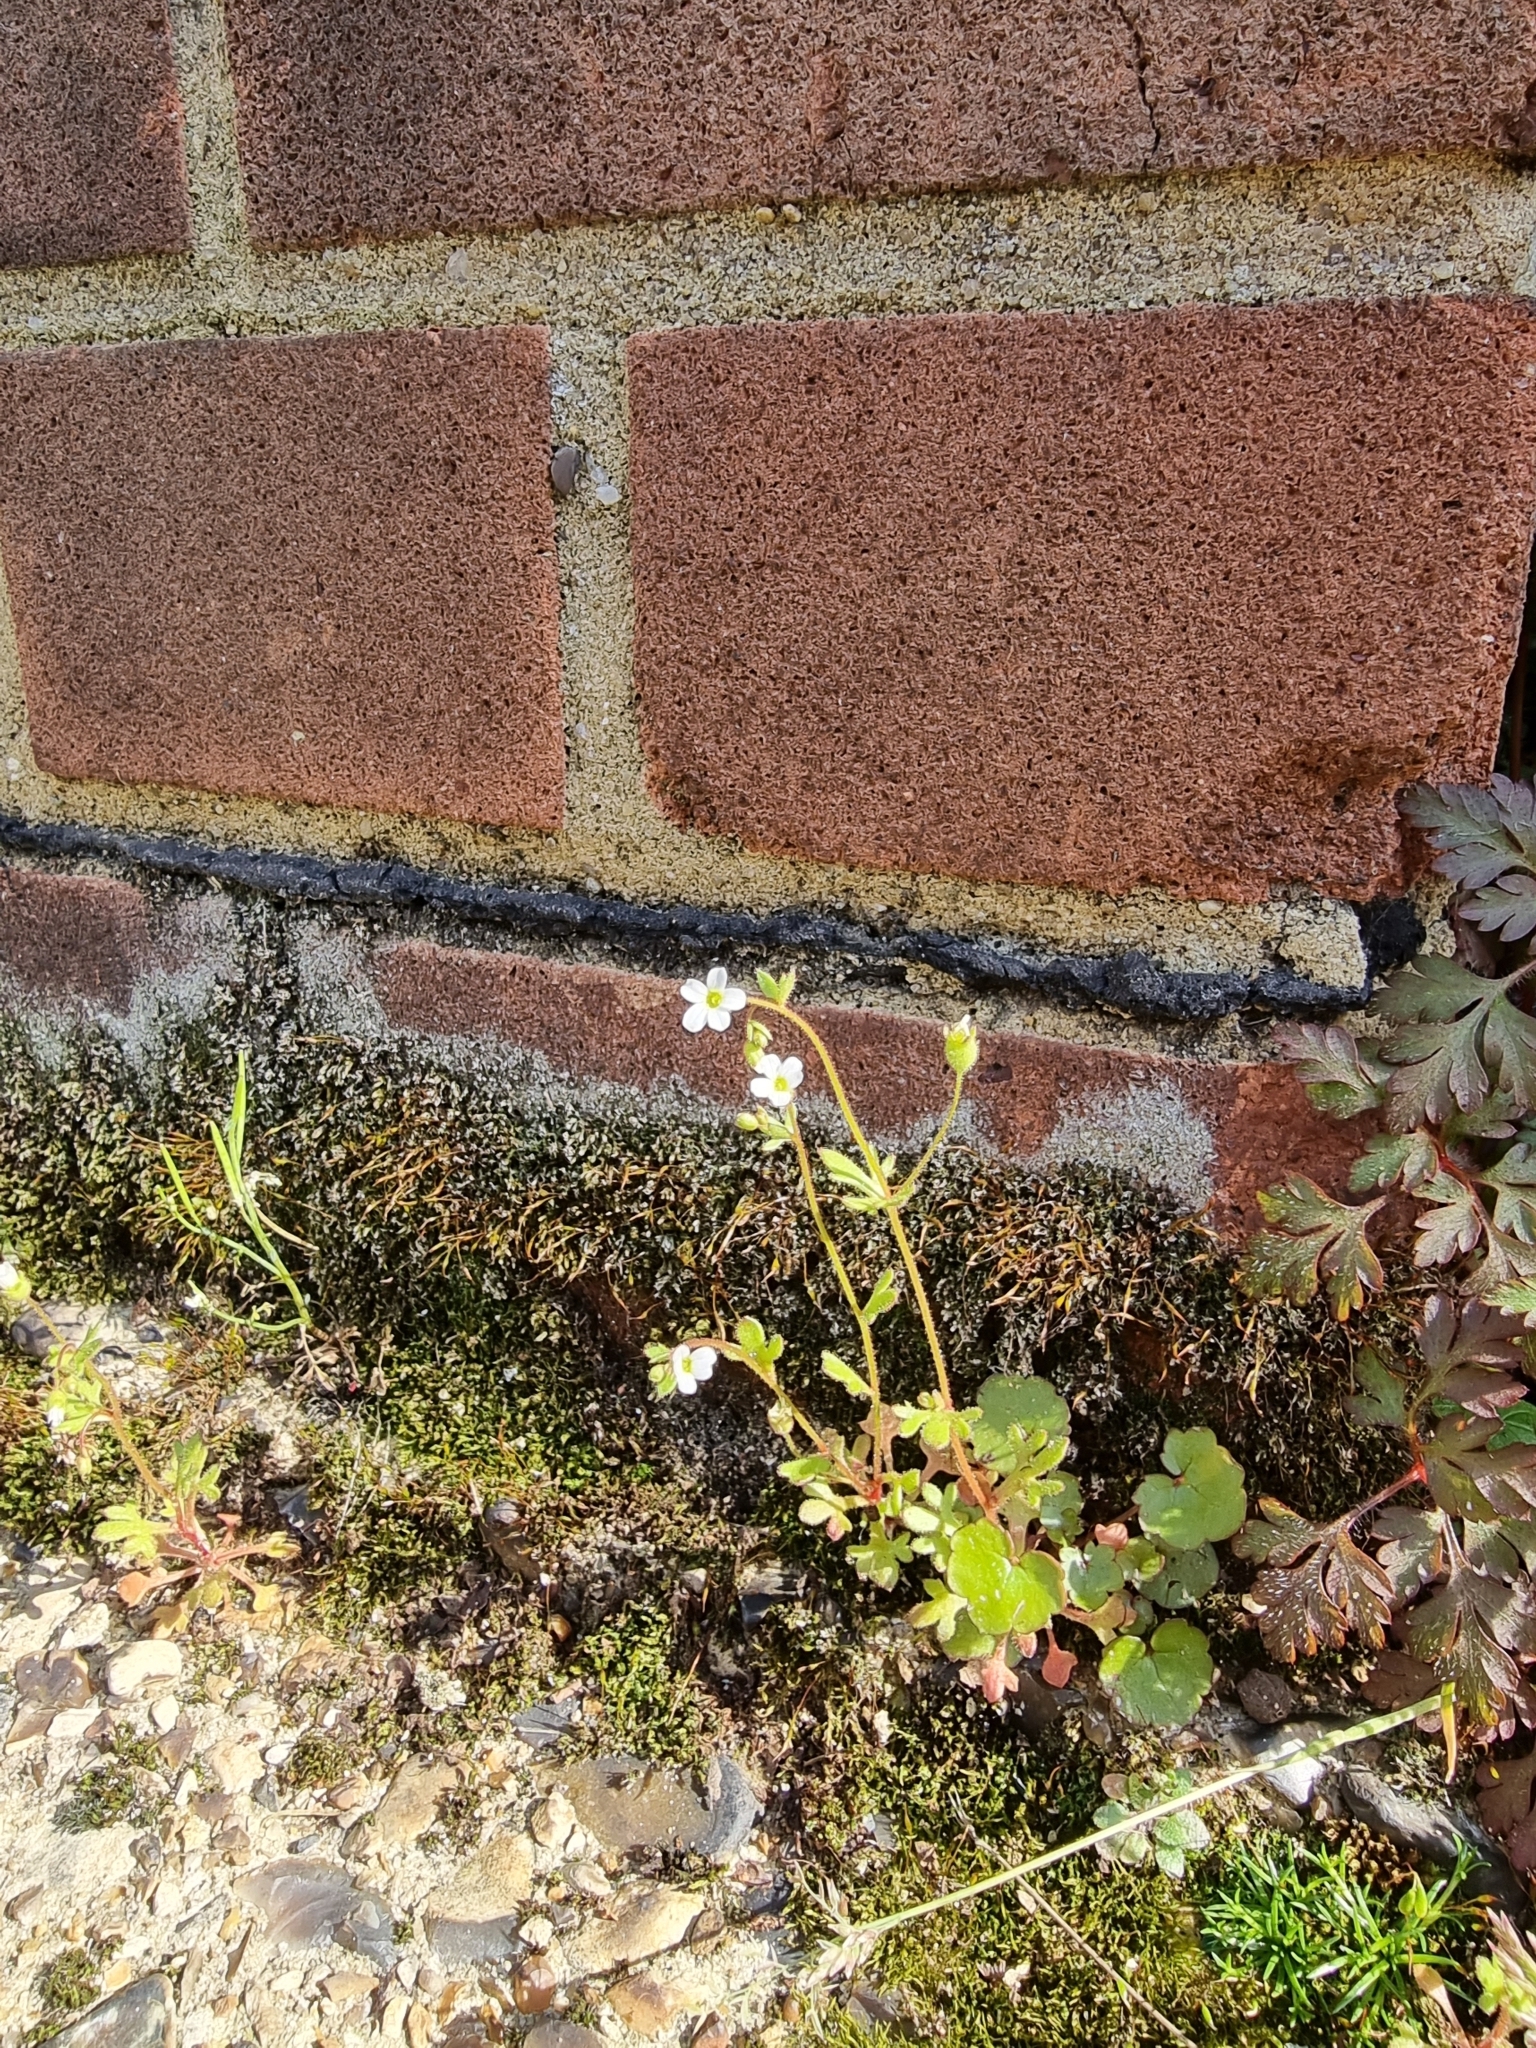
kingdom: Plantae
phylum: Tracheophyta
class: Magnoliopsida
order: Saxifragales
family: Saxifragaceae
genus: Saxifraga
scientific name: Saxifraga tridactylites
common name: Rue-leaved saxifrage
